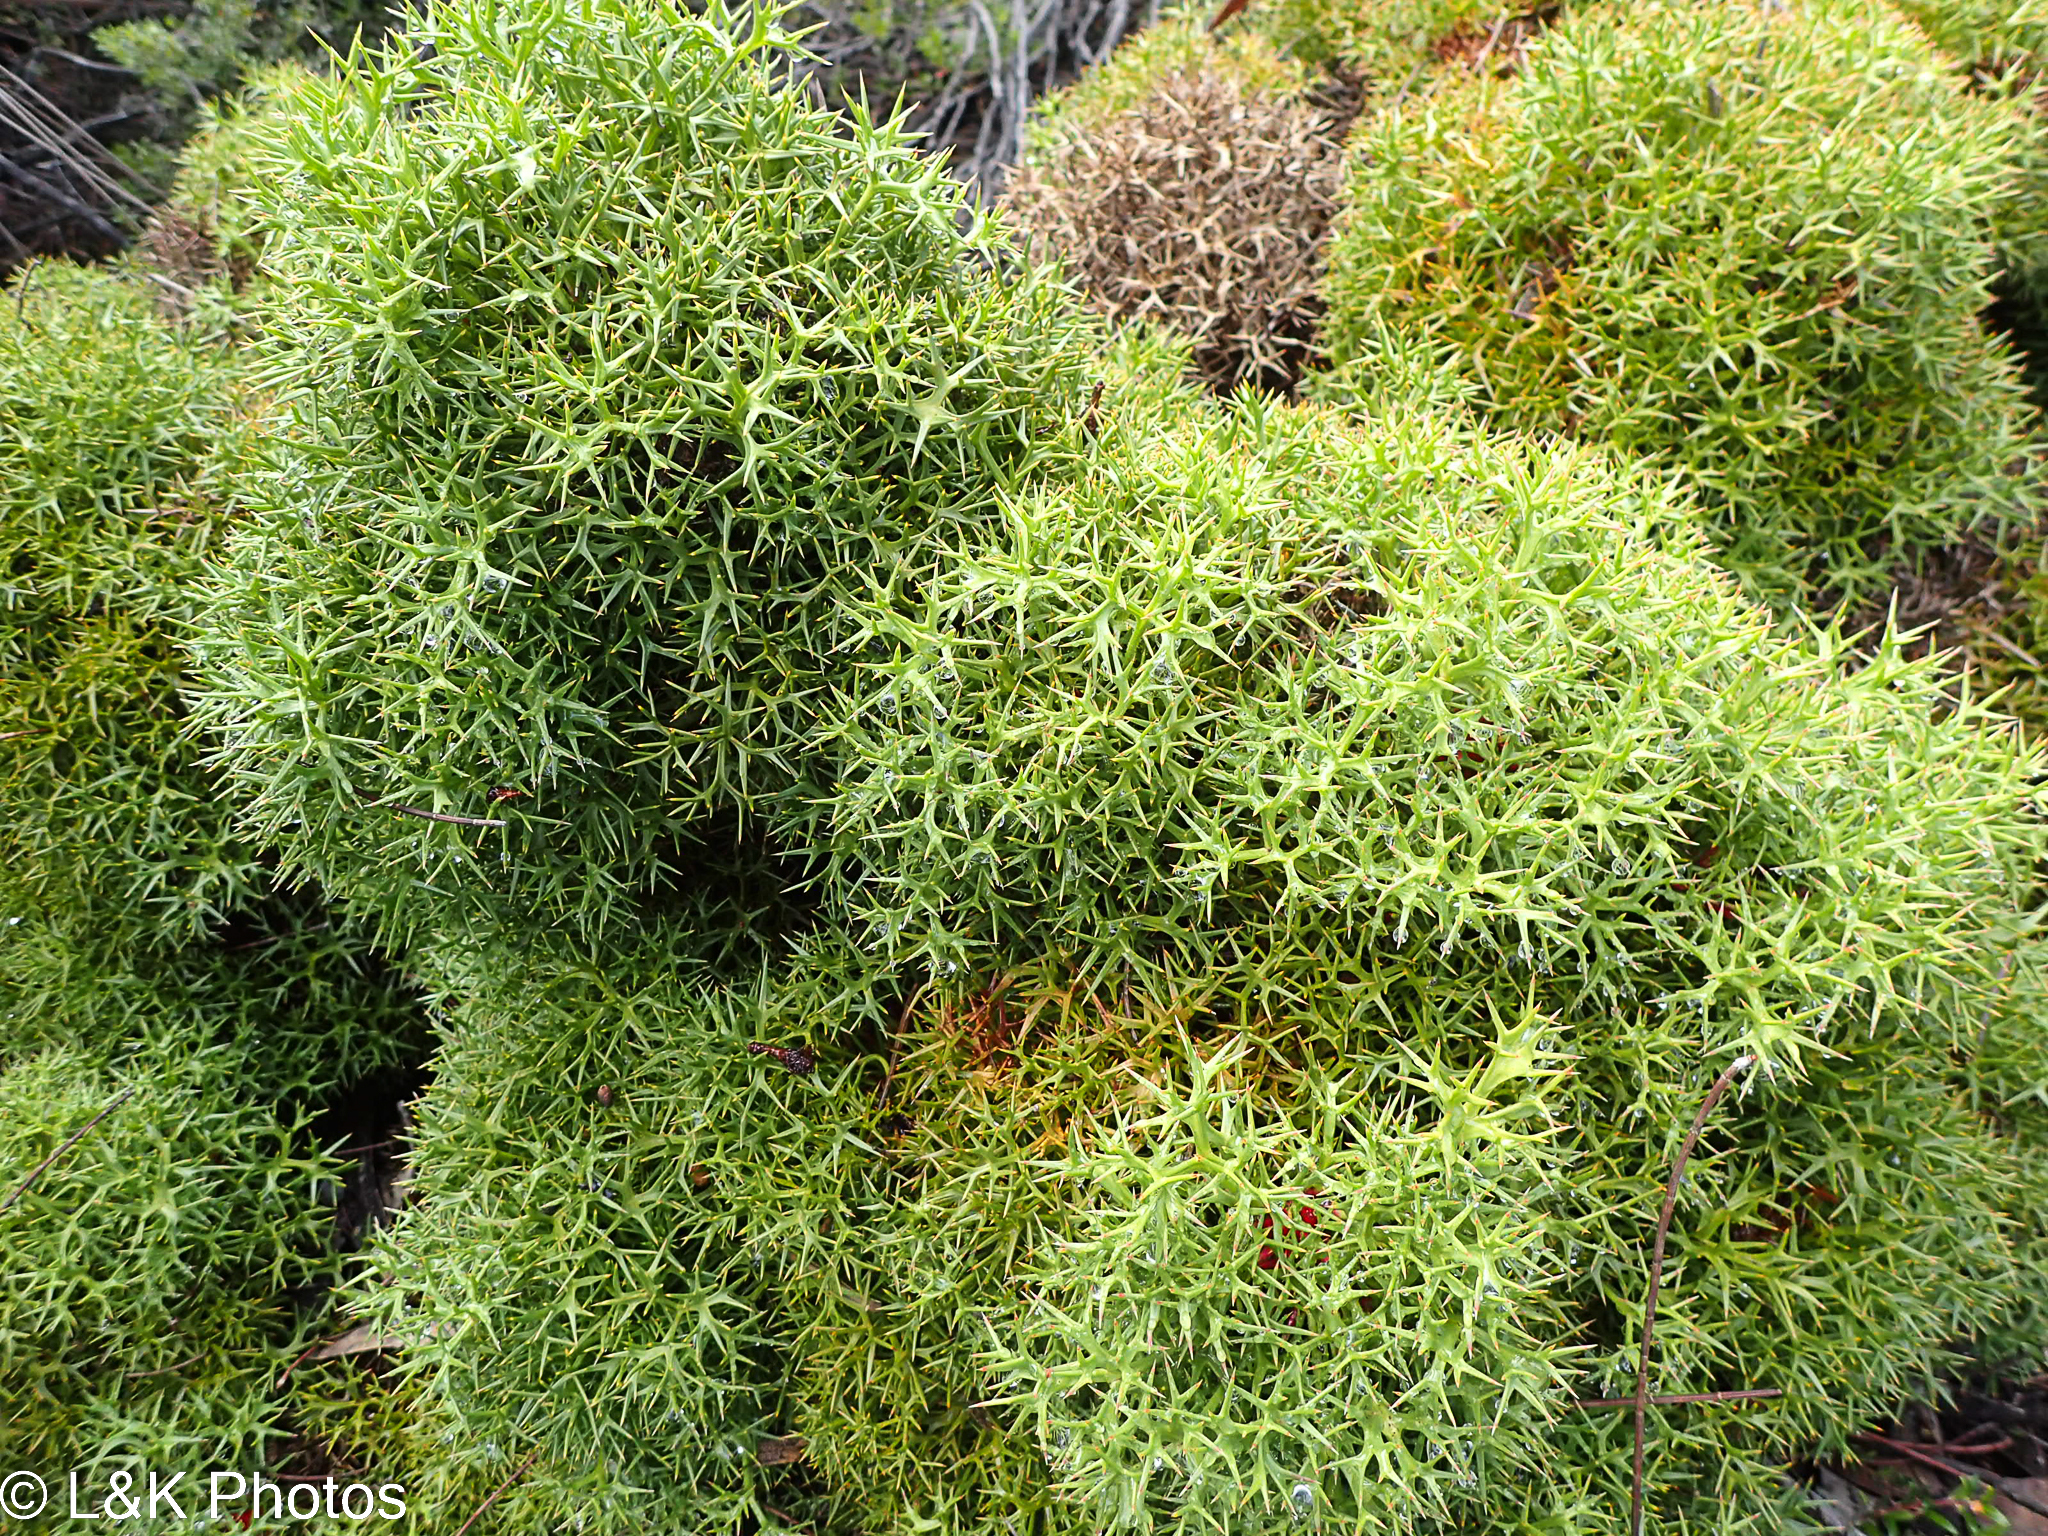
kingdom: Plantae
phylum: Tracheophyta
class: Magnoliopsida
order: Proteales
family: Proteaceae
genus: Isopogon
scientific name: Isopogon ceratophyllus
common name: Horny cone-bush
